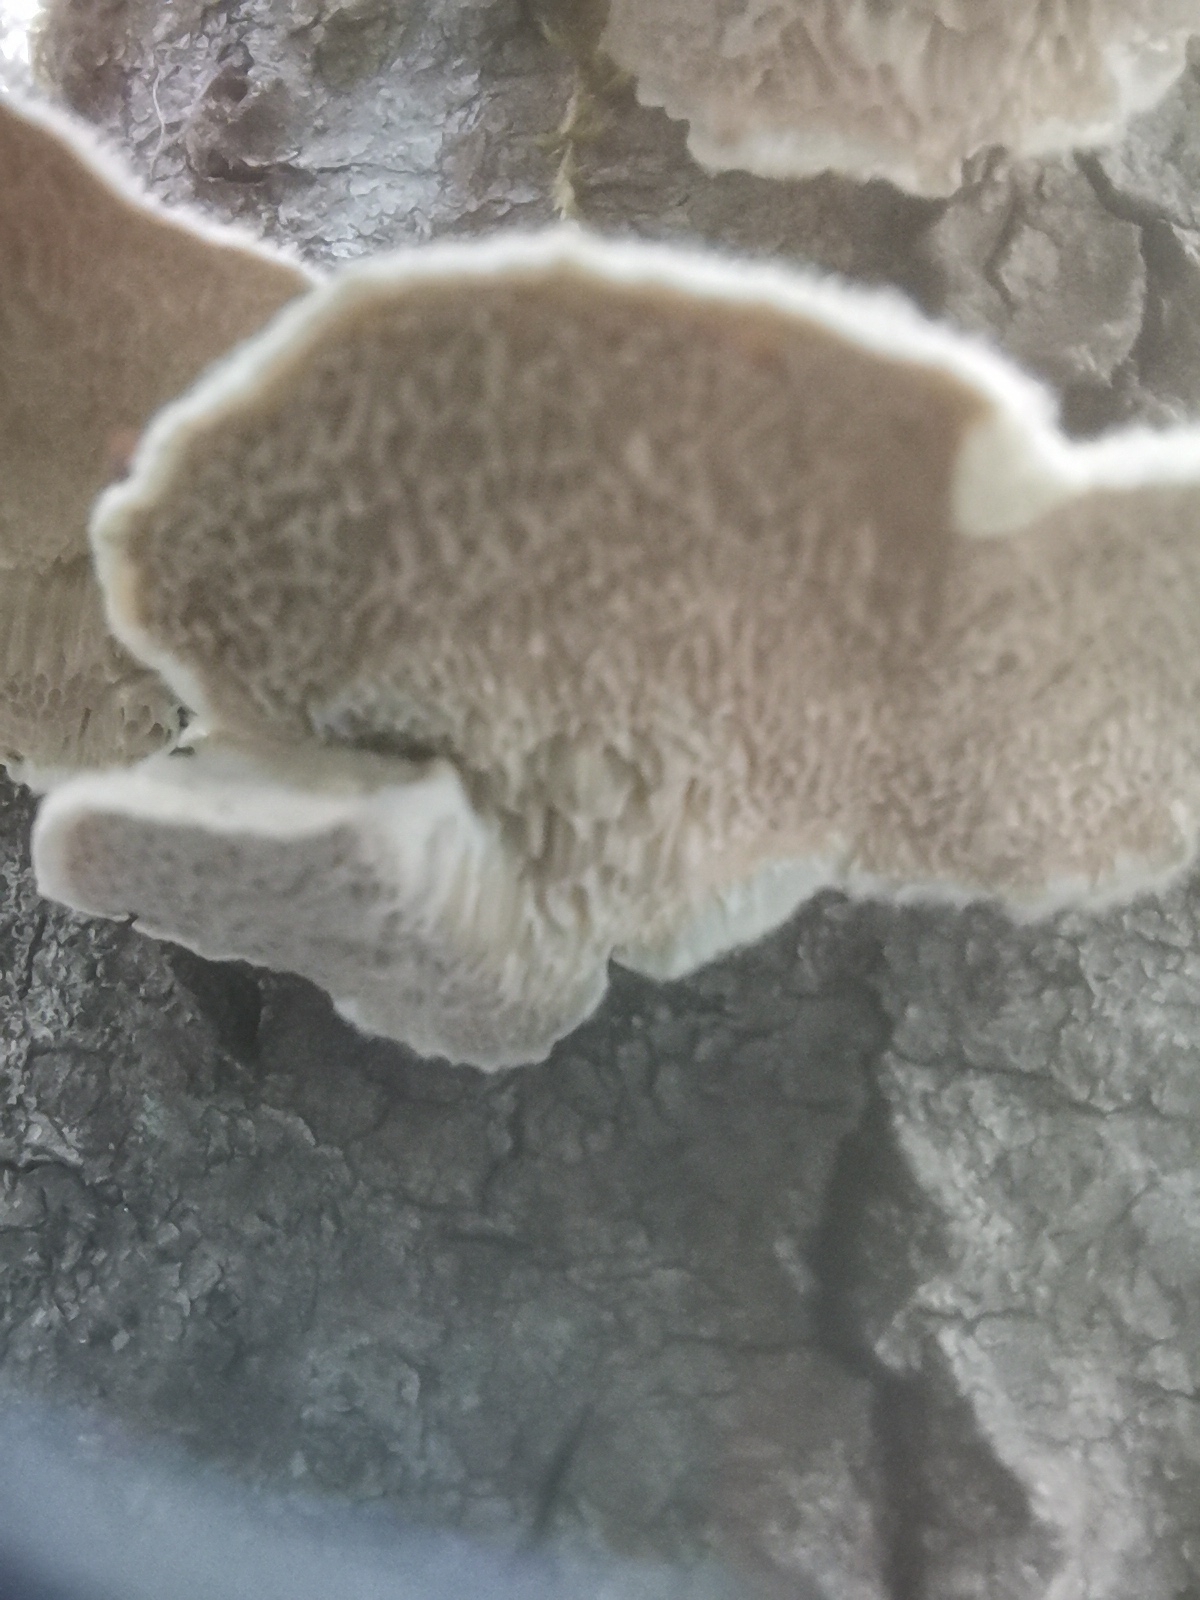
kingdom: Fungi
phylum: Basidiomycota
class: Agaricomycetes
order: Polyporales
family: Polyporaceae
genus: Trametes
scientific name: Trametes ochracea
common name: Ochre bracket
